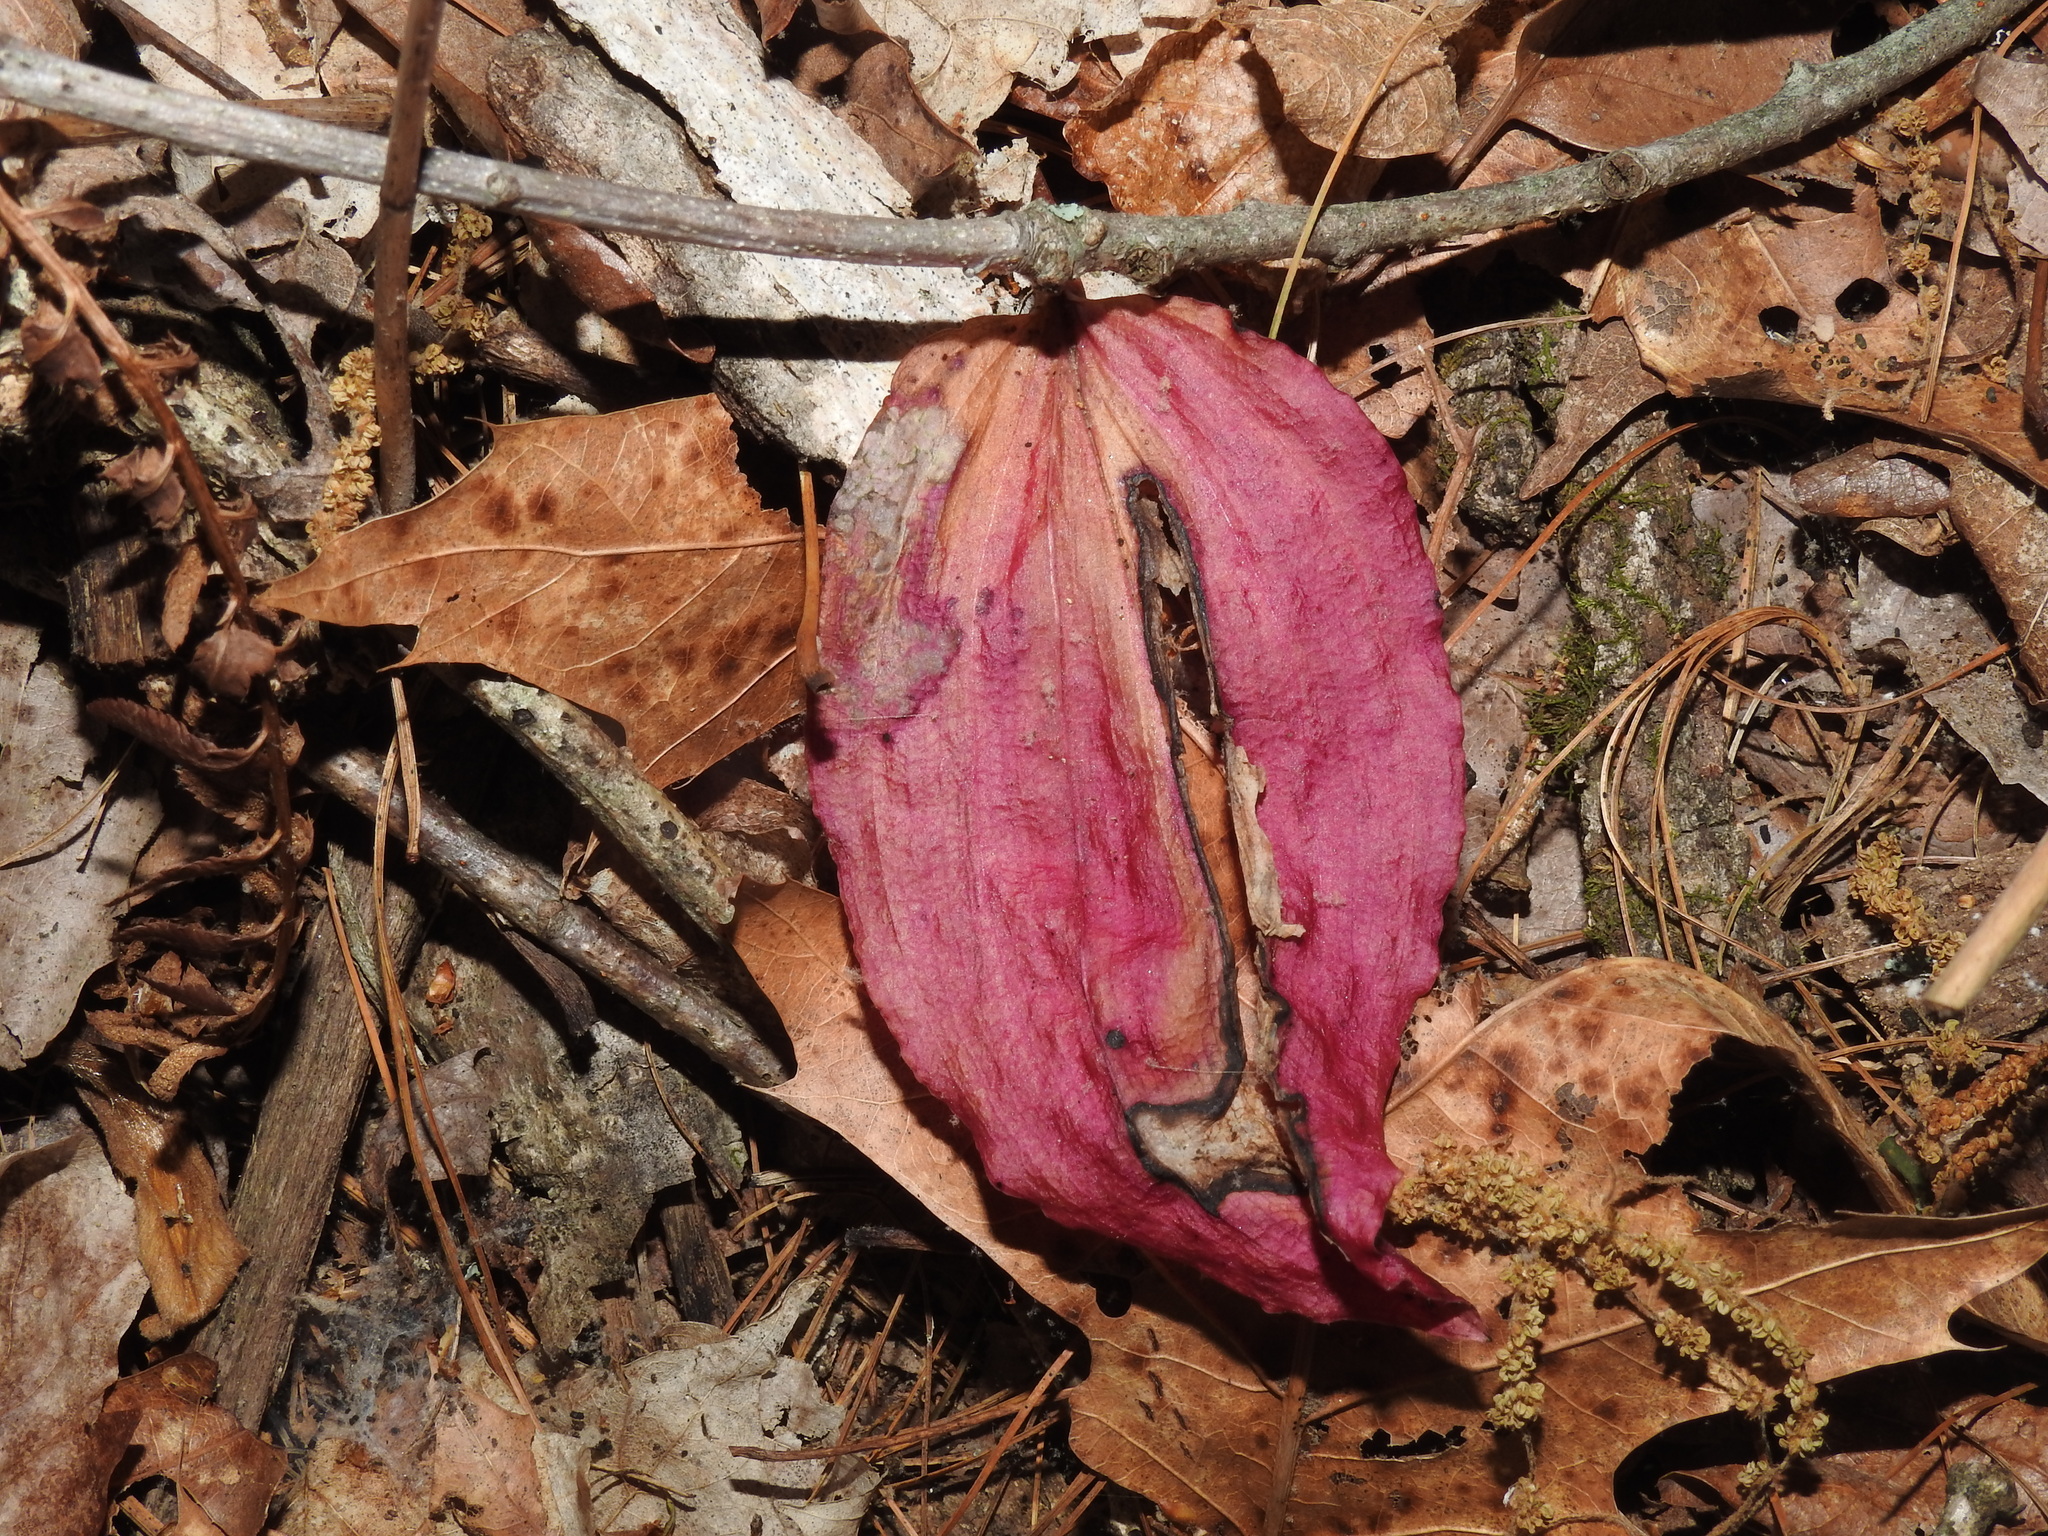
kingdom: Plantae
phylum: Tracheophyta
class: Liliopsida
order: Asparagales
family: Orchidaceae
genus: Tipularia
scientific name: Tipularia discolor
